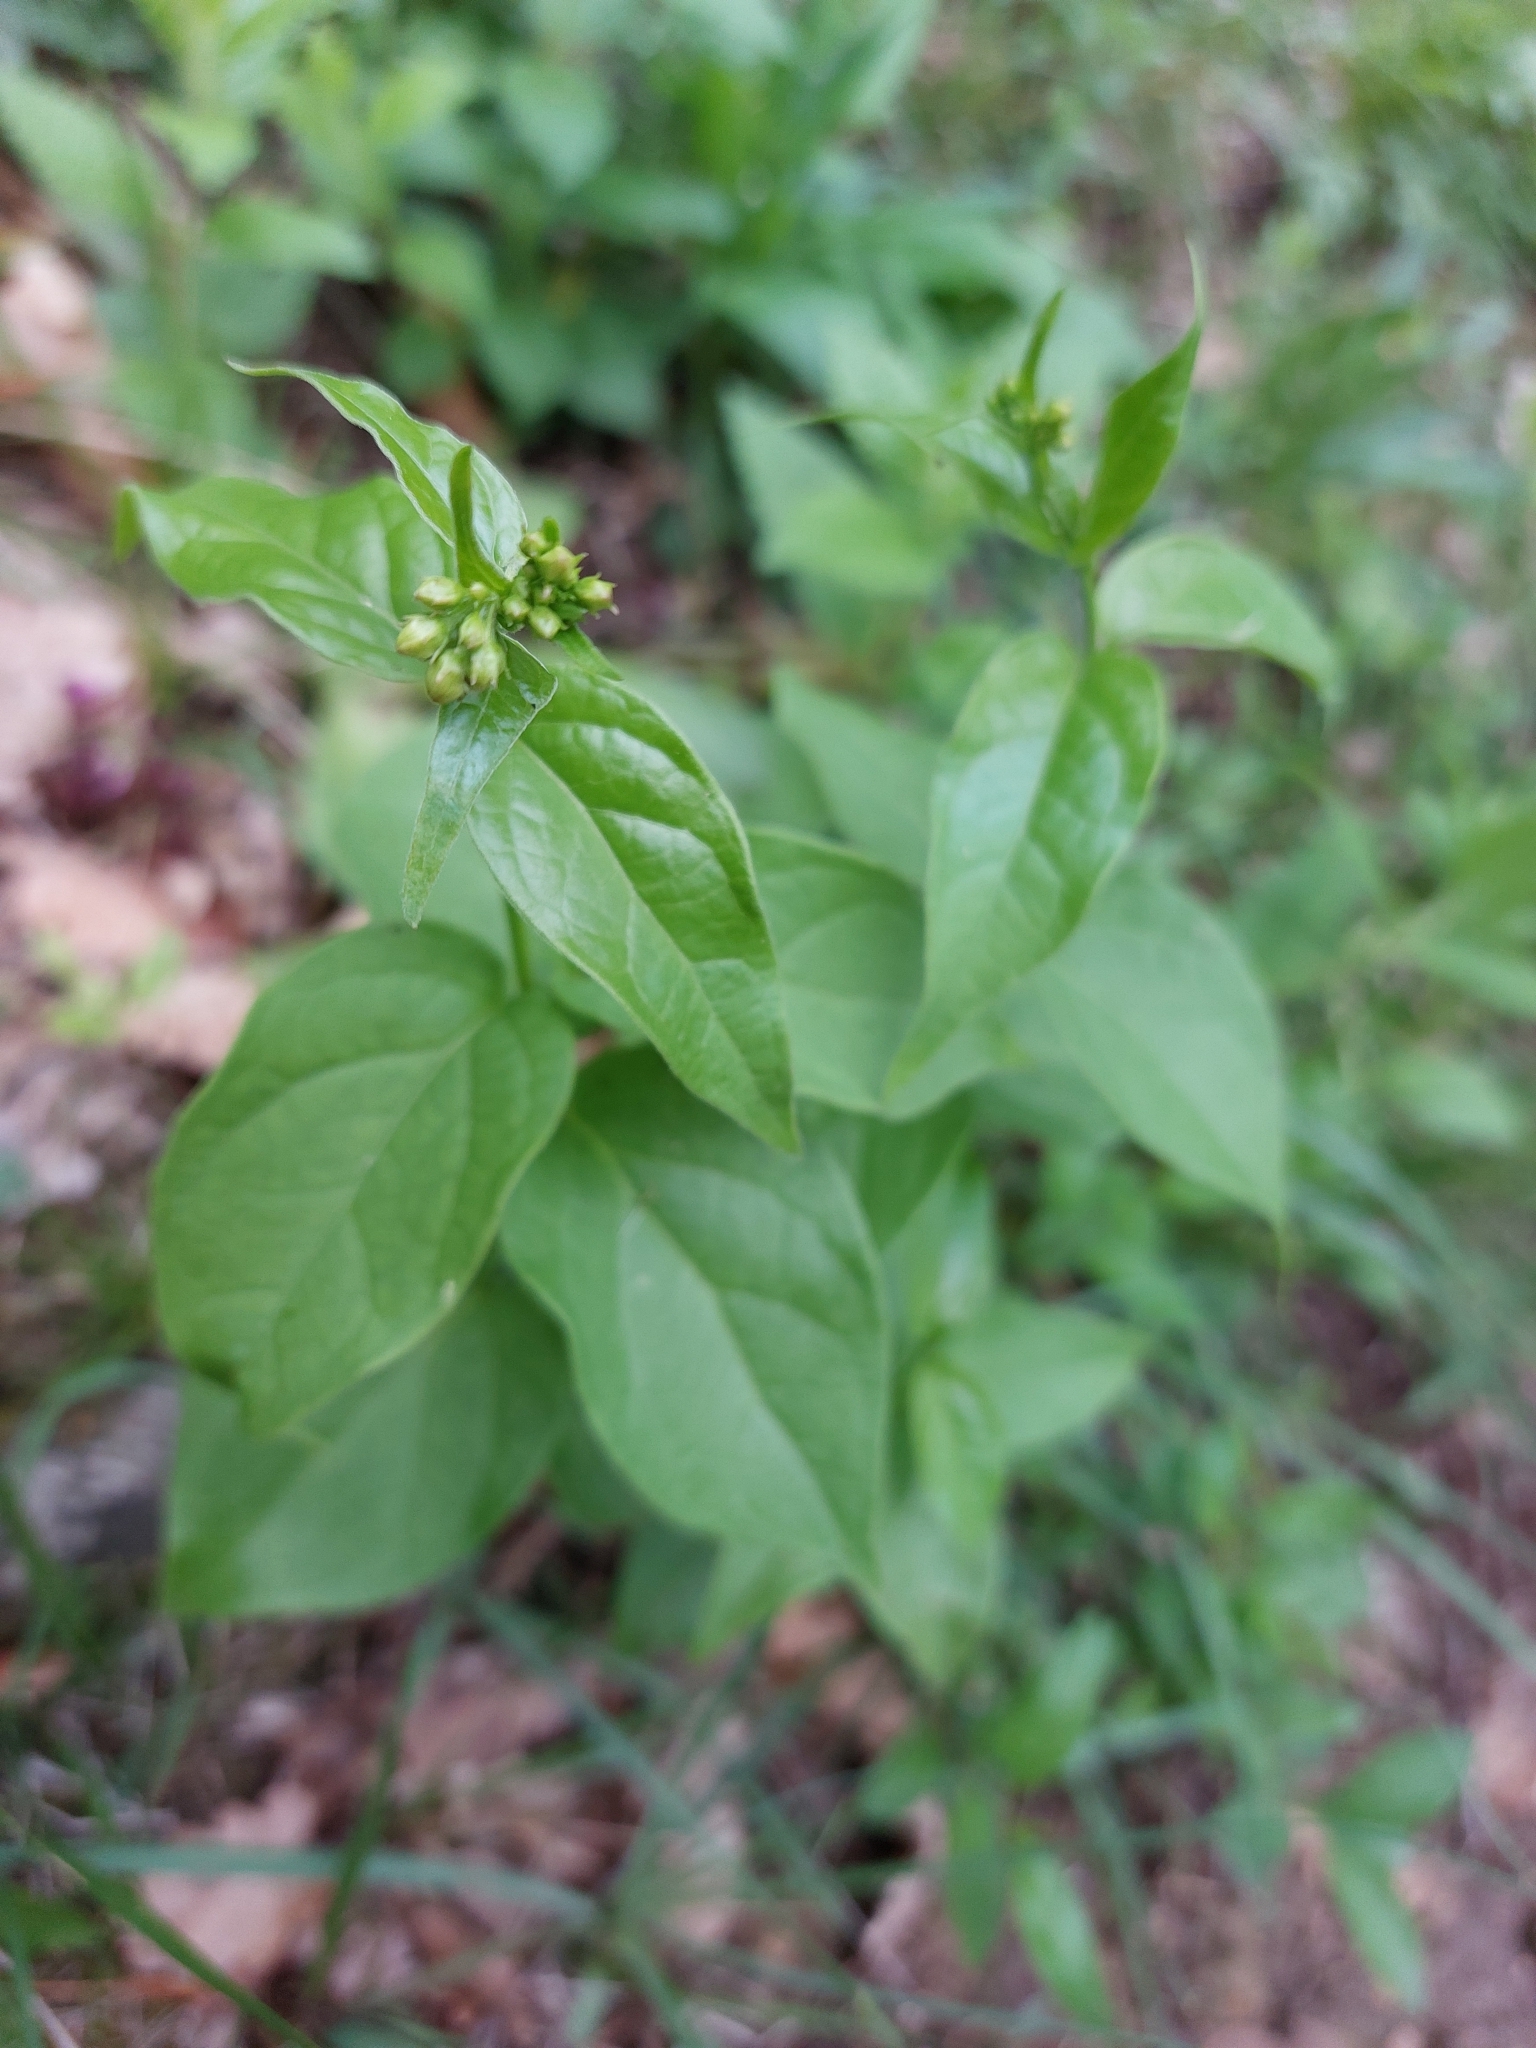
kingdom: Plantae
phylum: Tracheophyta
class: Magnoliopsida
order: Gentianales
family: Apocynaceae
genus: Vincetoxicum
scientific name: Vincetoxicum hirundinaria
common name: White swallowwort
